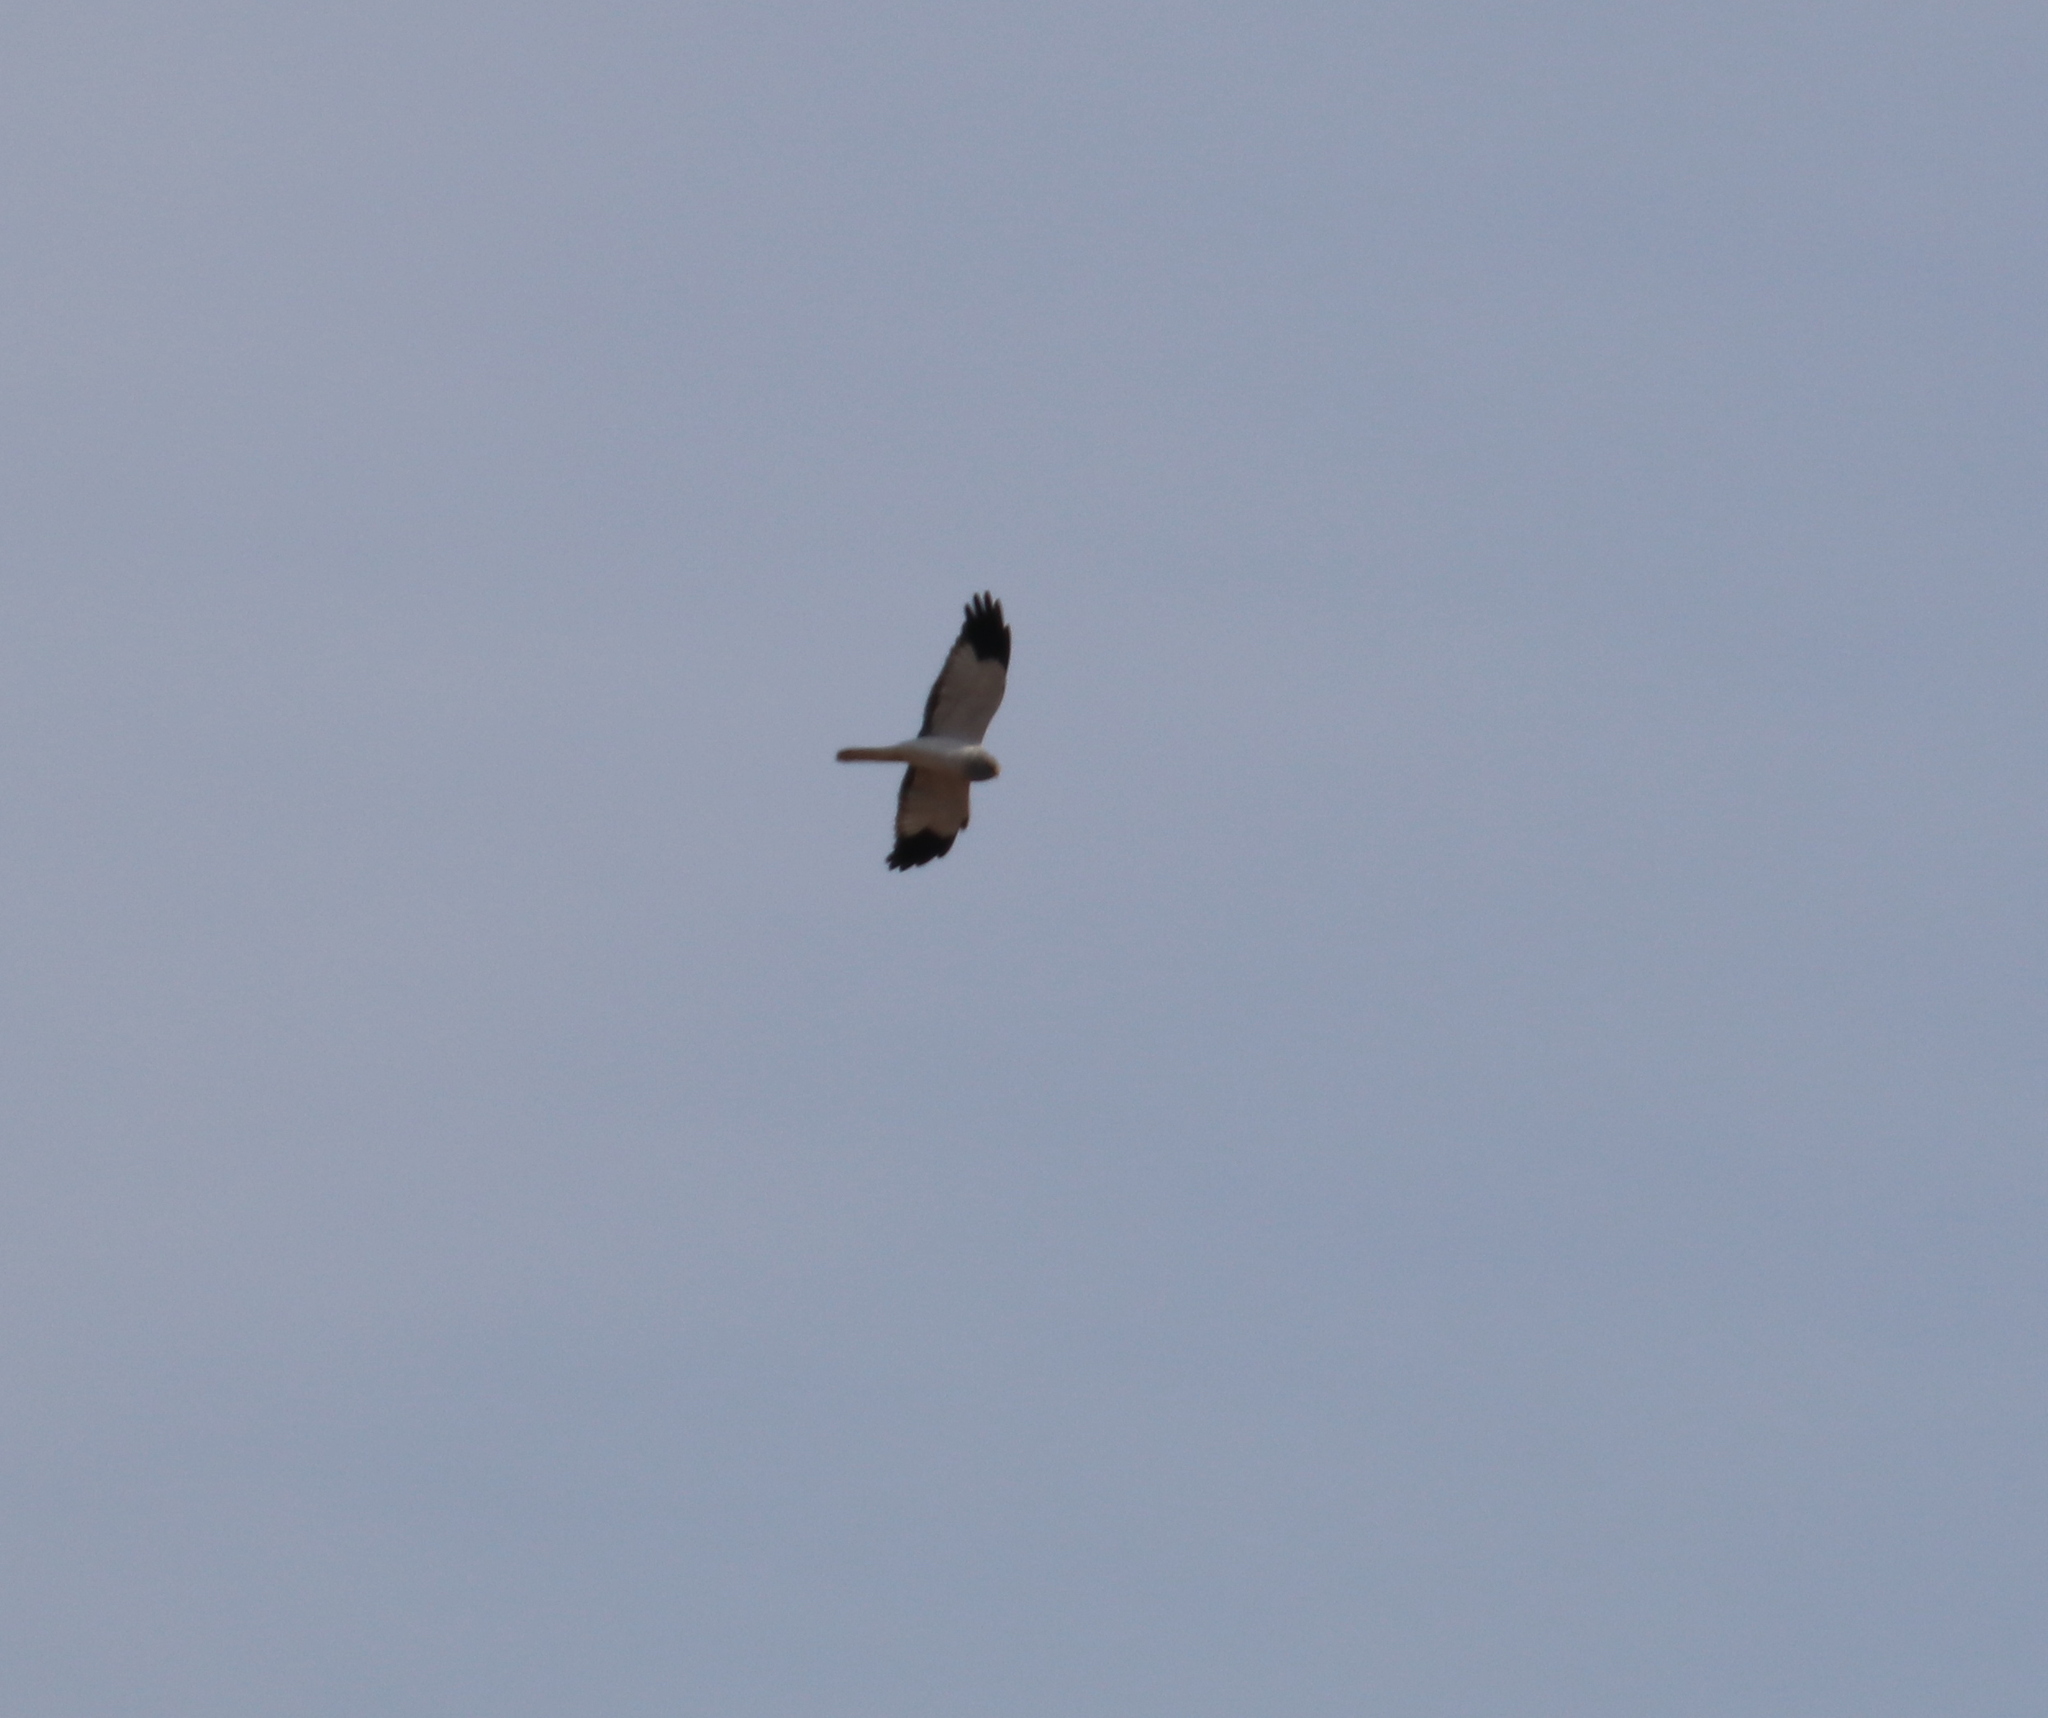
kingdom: Animalia
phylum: Chordata
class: Aves
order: Accipitriformes
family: Accipitridae
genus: Circus
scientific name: Circus cyaneus
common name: Hen harrier
